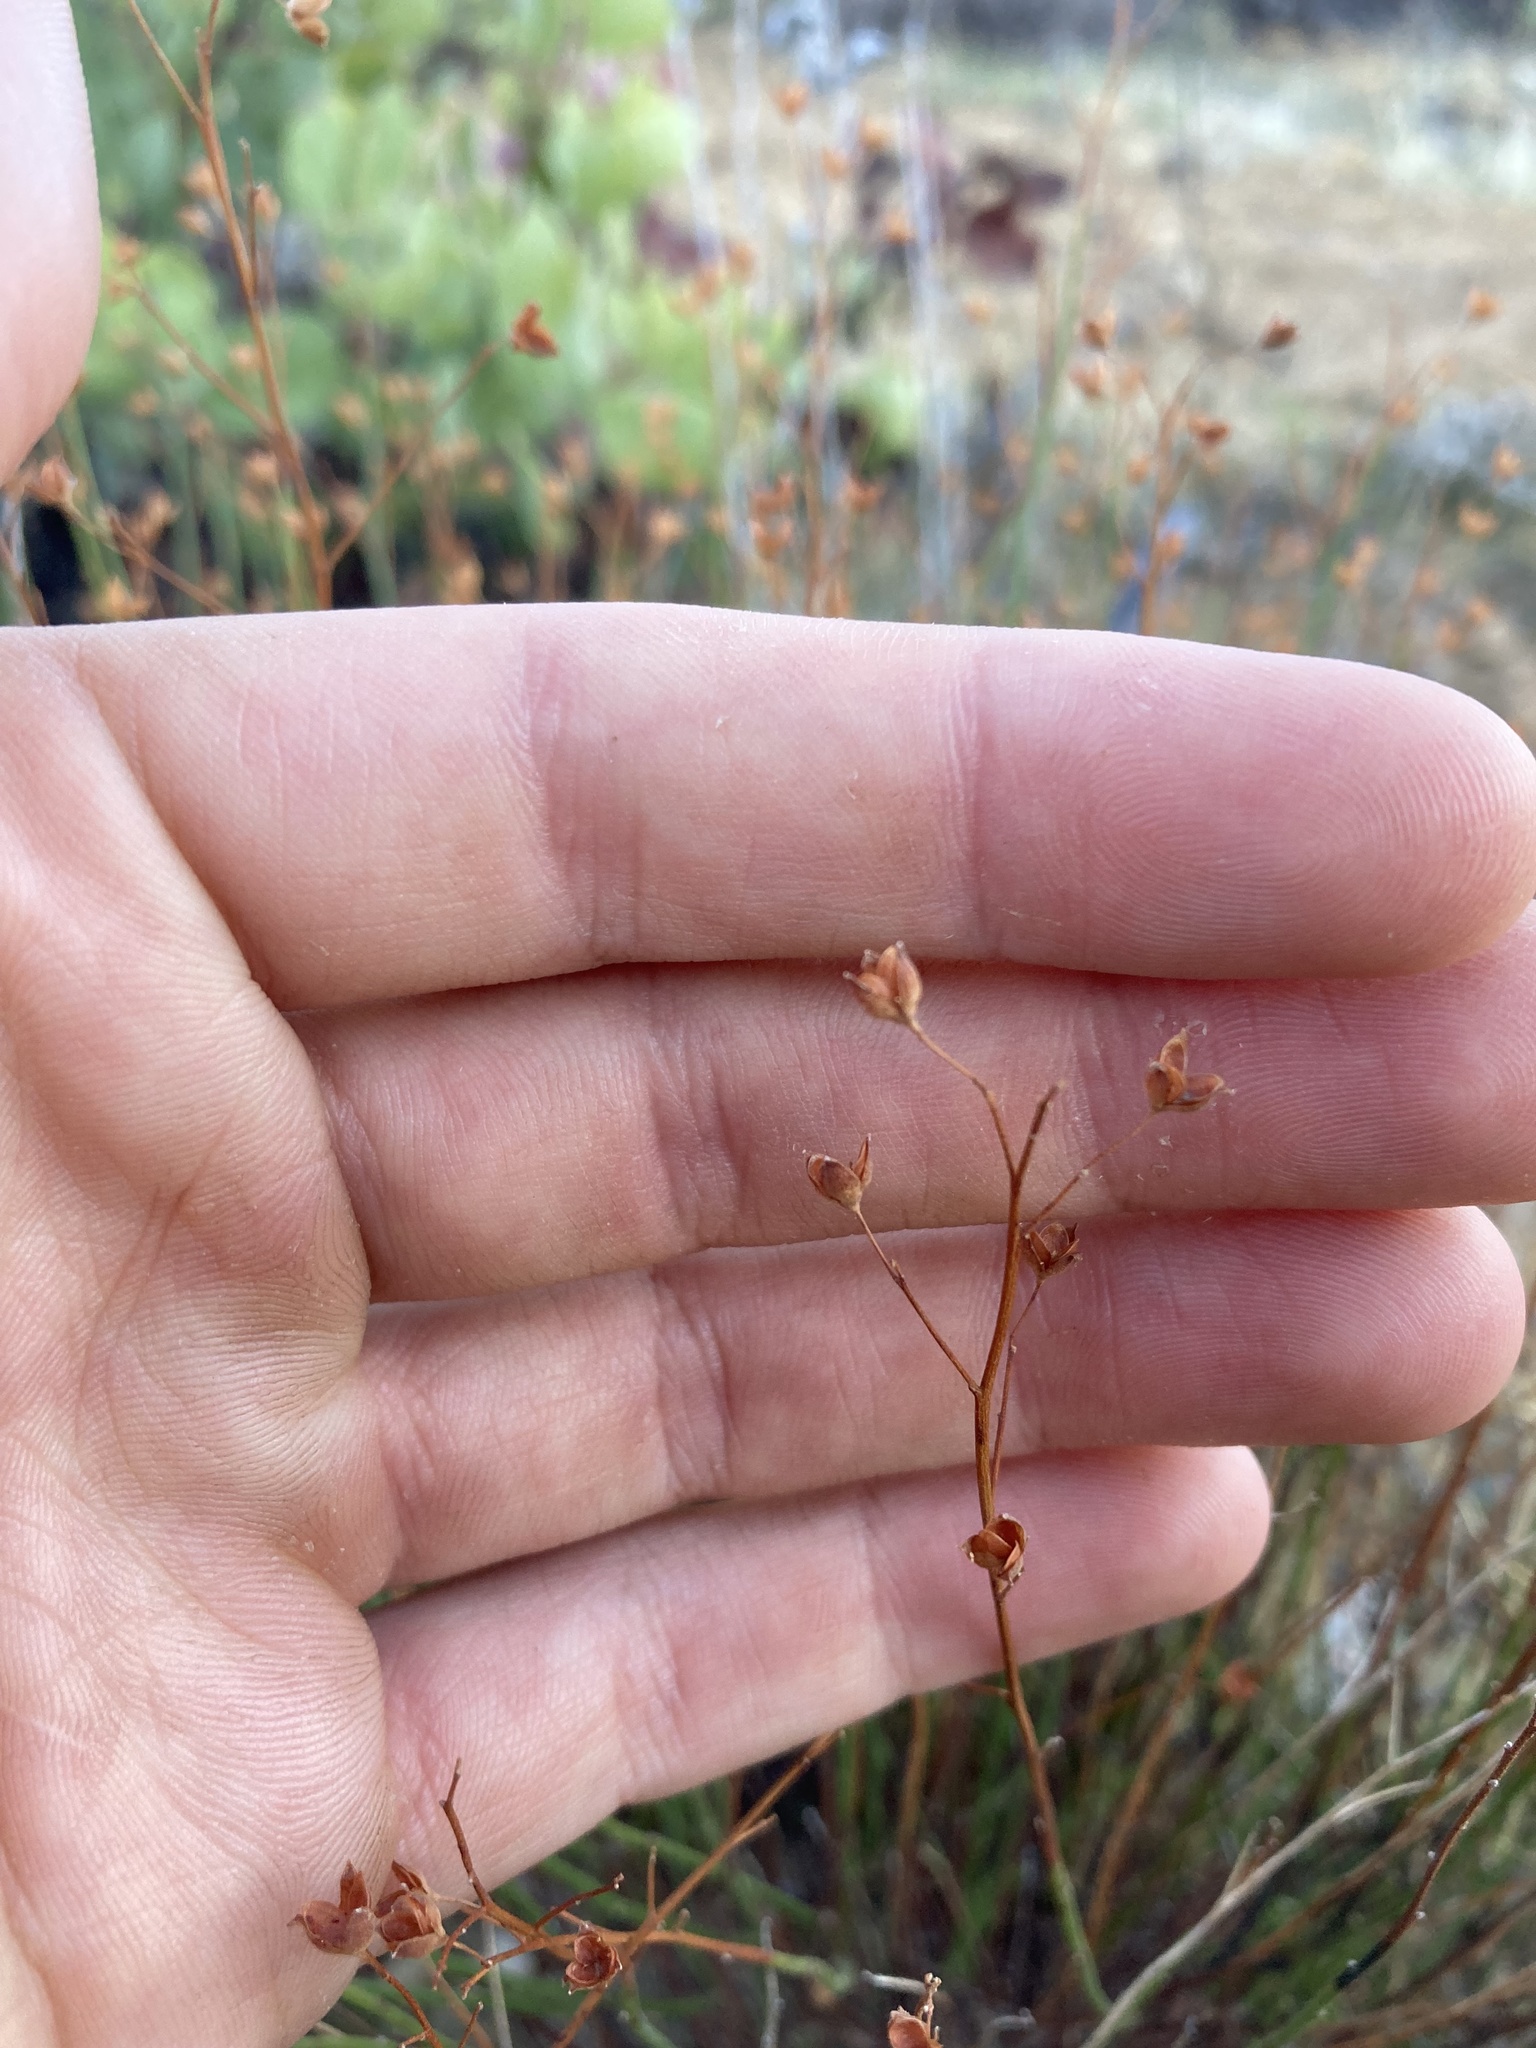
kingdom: Plantae
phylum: Tracheophyta
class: Magnoliopsida
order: Malvales
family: Cistaceae
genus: Crocanthemum
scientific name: Crocanthemum scoparium
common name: Broom-rose
